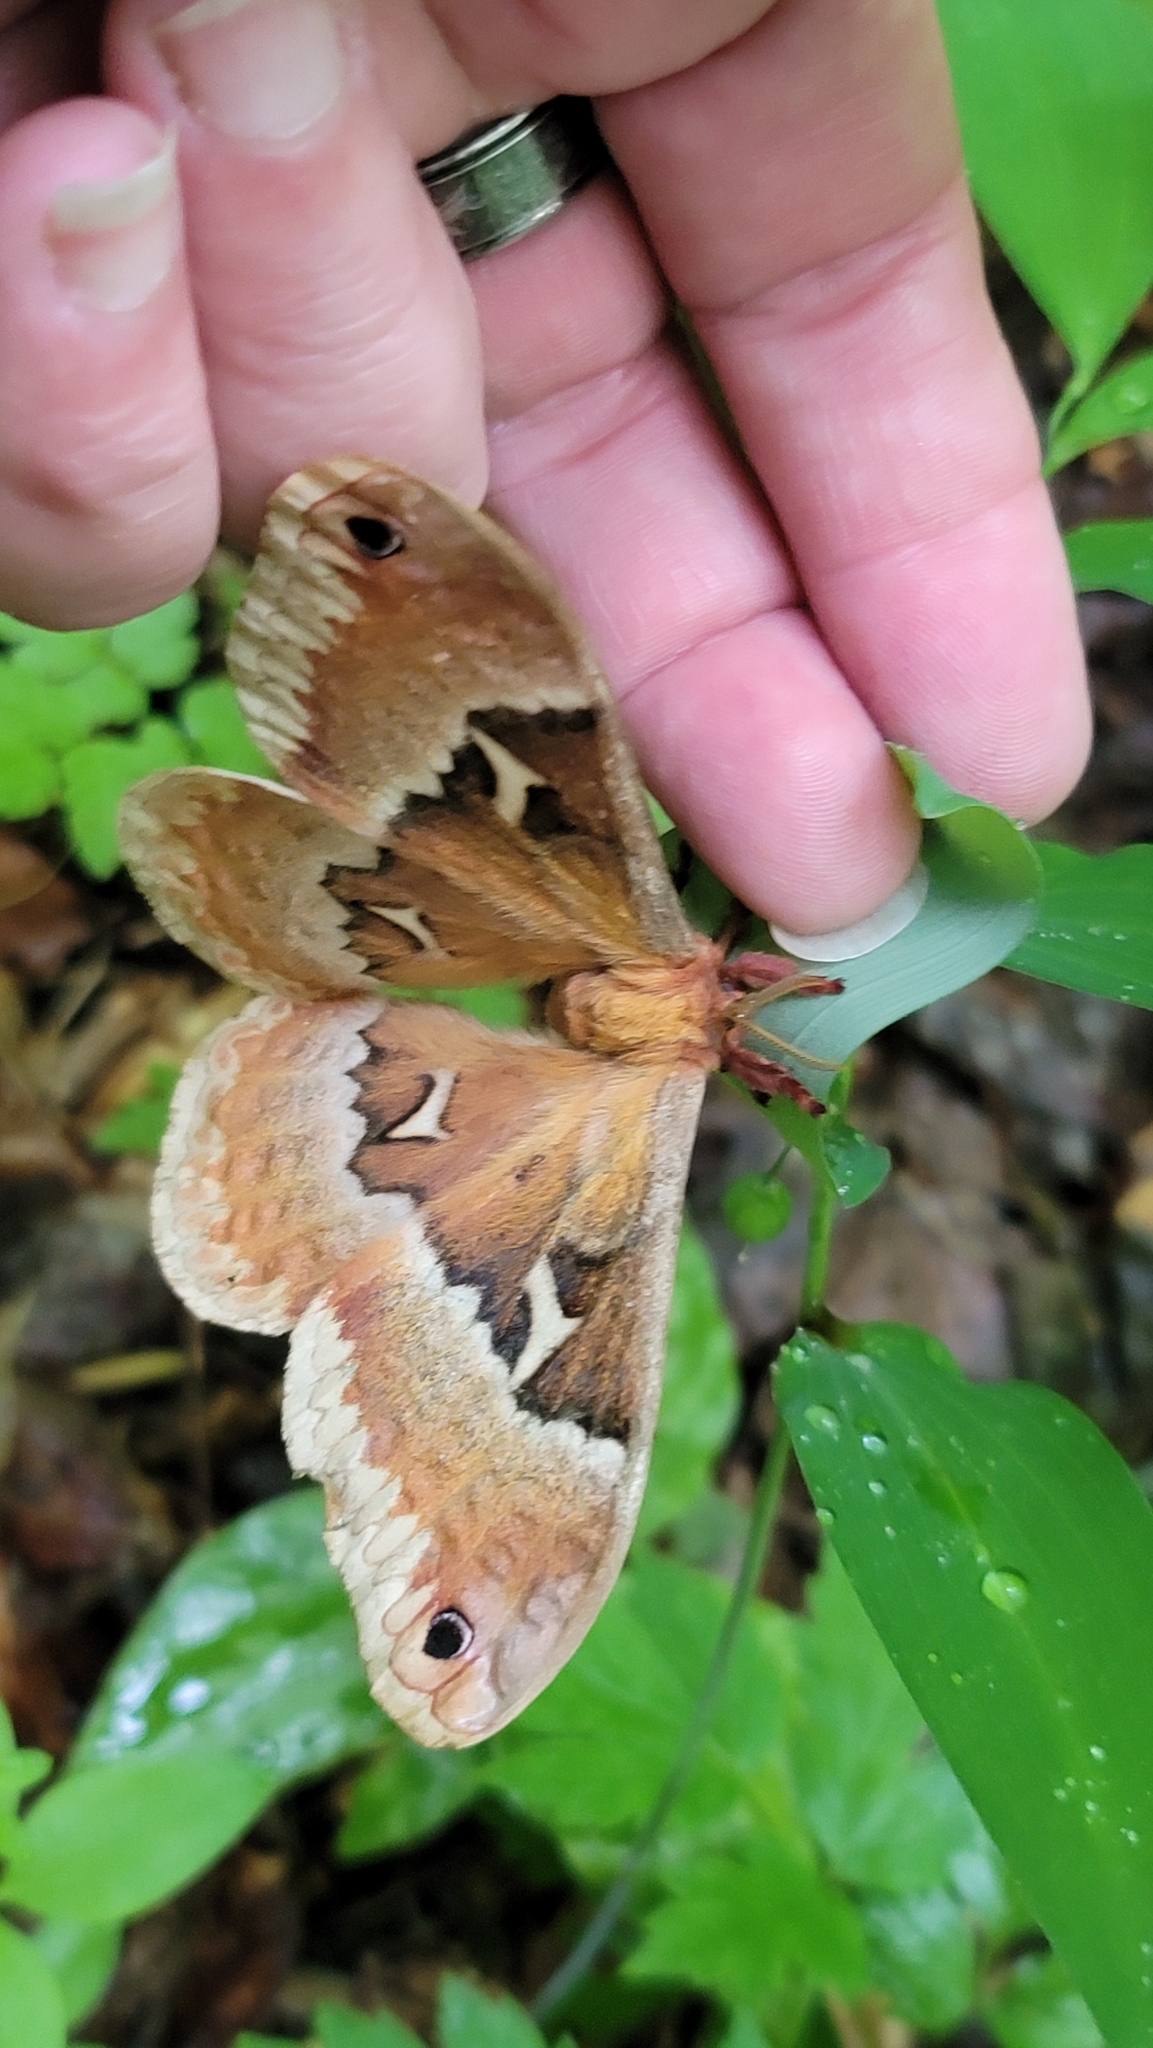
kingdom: Animalia
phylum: Arthropoda
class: Insecta
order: Lepidoptera
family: Saturniidae
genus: Callosamia
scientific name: Callosamia angulifera
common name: Tulip tree silkmoth
